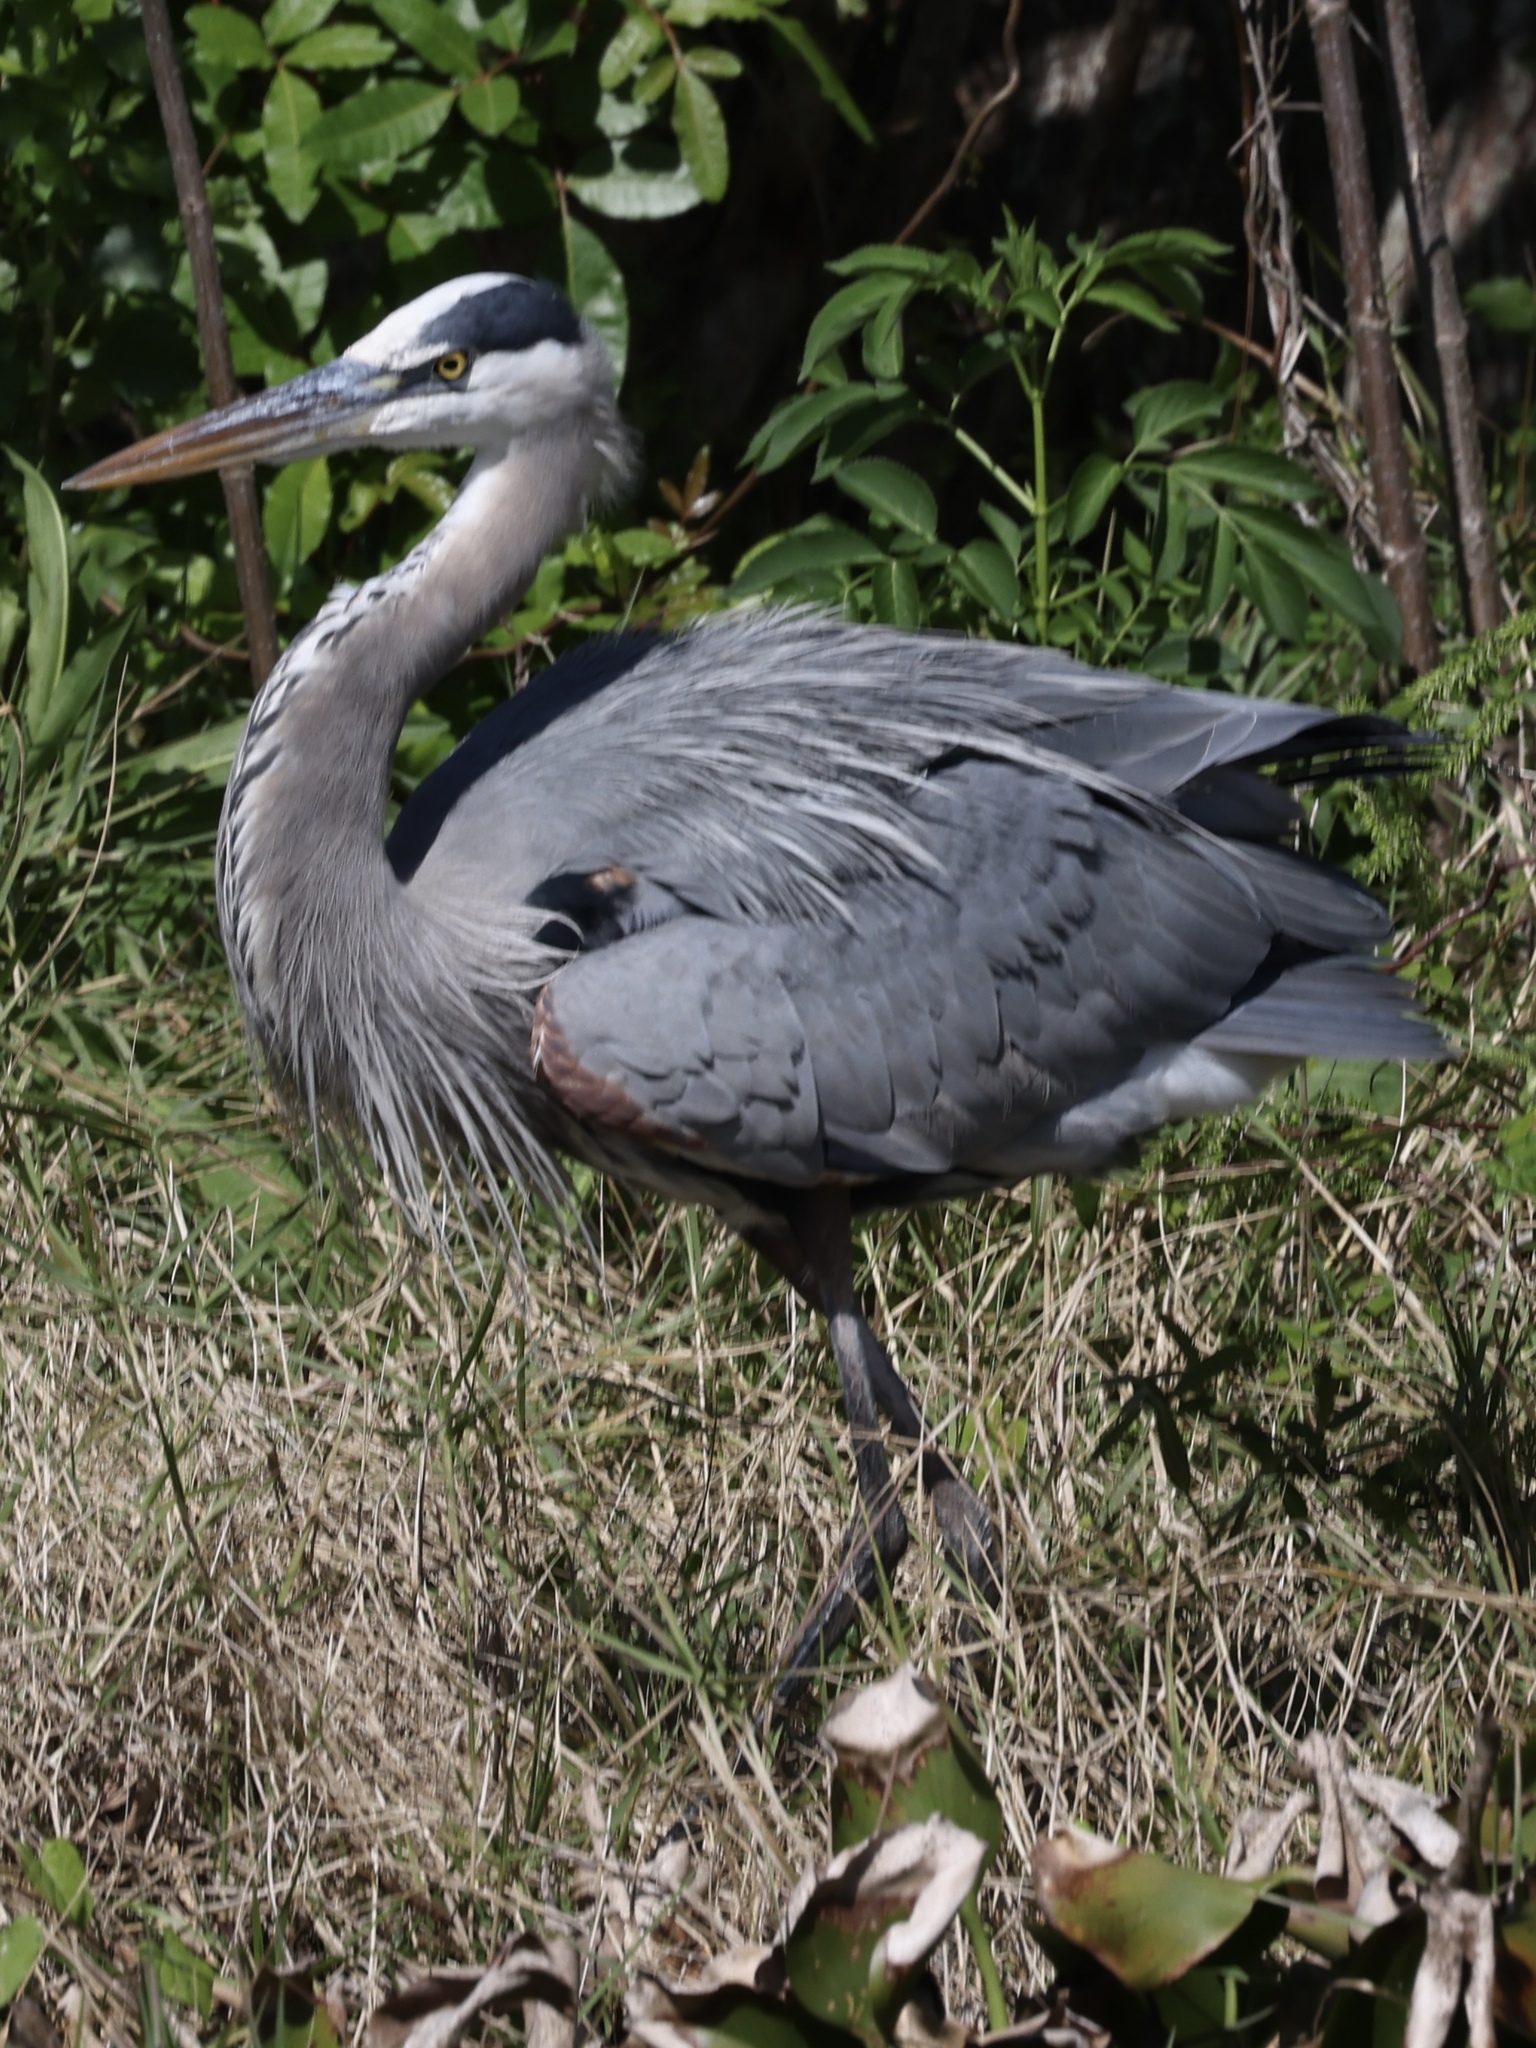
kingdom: Animalia
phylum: Chordata
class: Aves
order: Pelecaniformes
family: Ardeidae
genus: Ardea
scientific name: Ardea herodias
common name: Great blue heron
